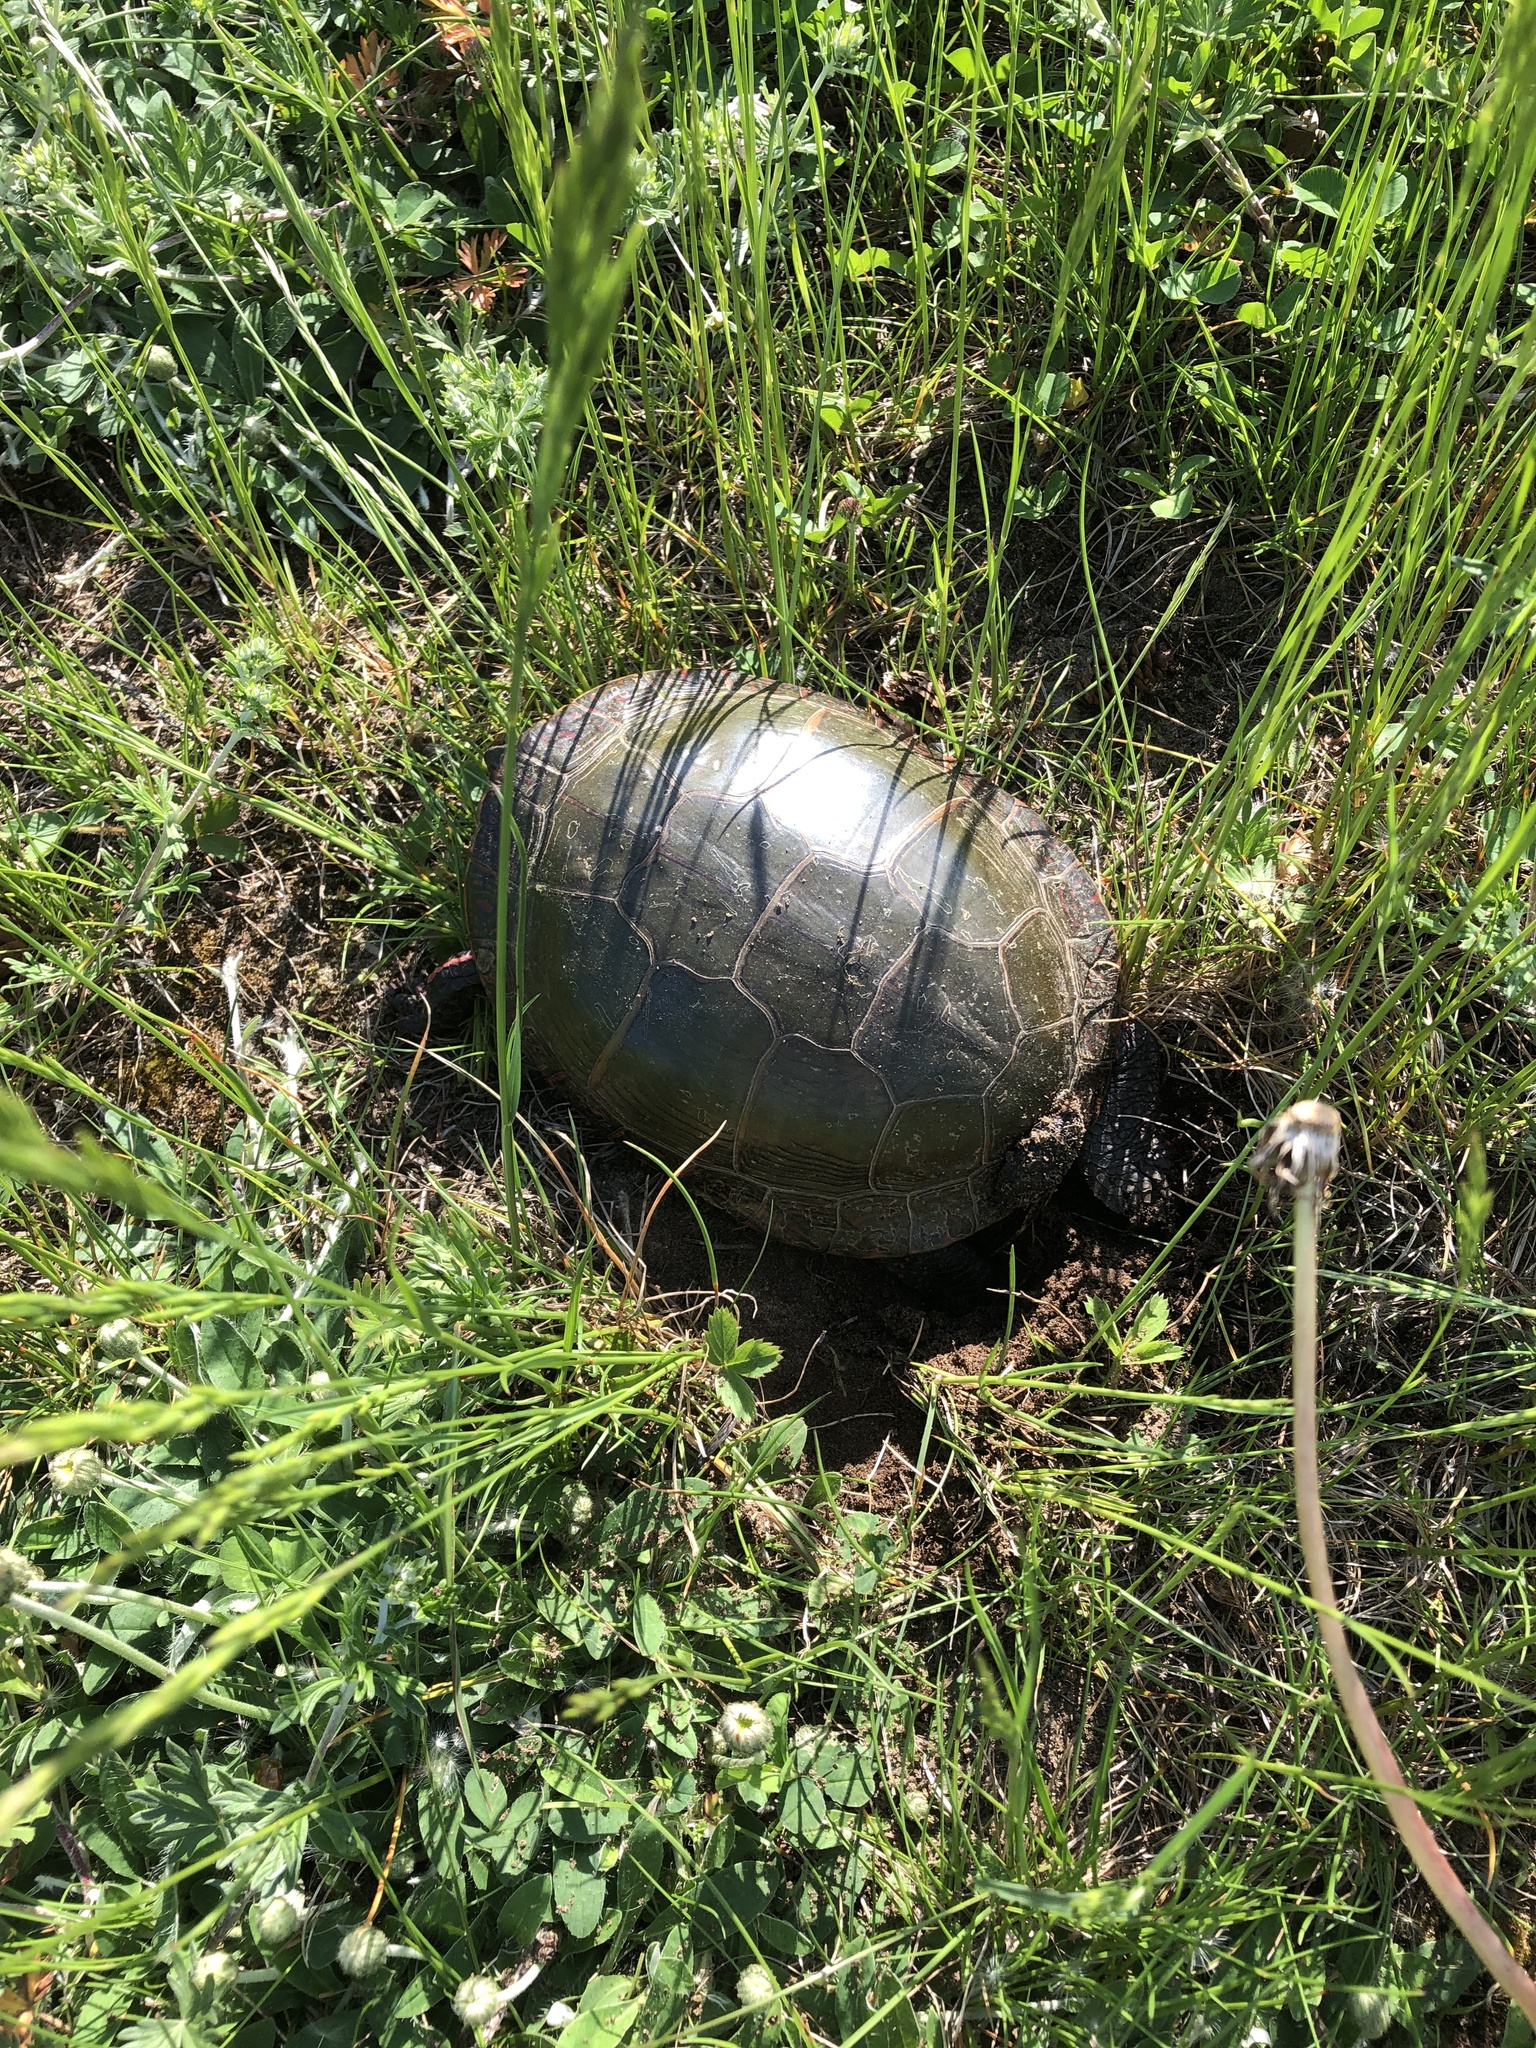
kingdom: Animalia
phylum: Chordata
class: Testudines
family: Emydidae
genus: Chrysemys
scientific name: Chrysemys picta
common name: Painted turtle
